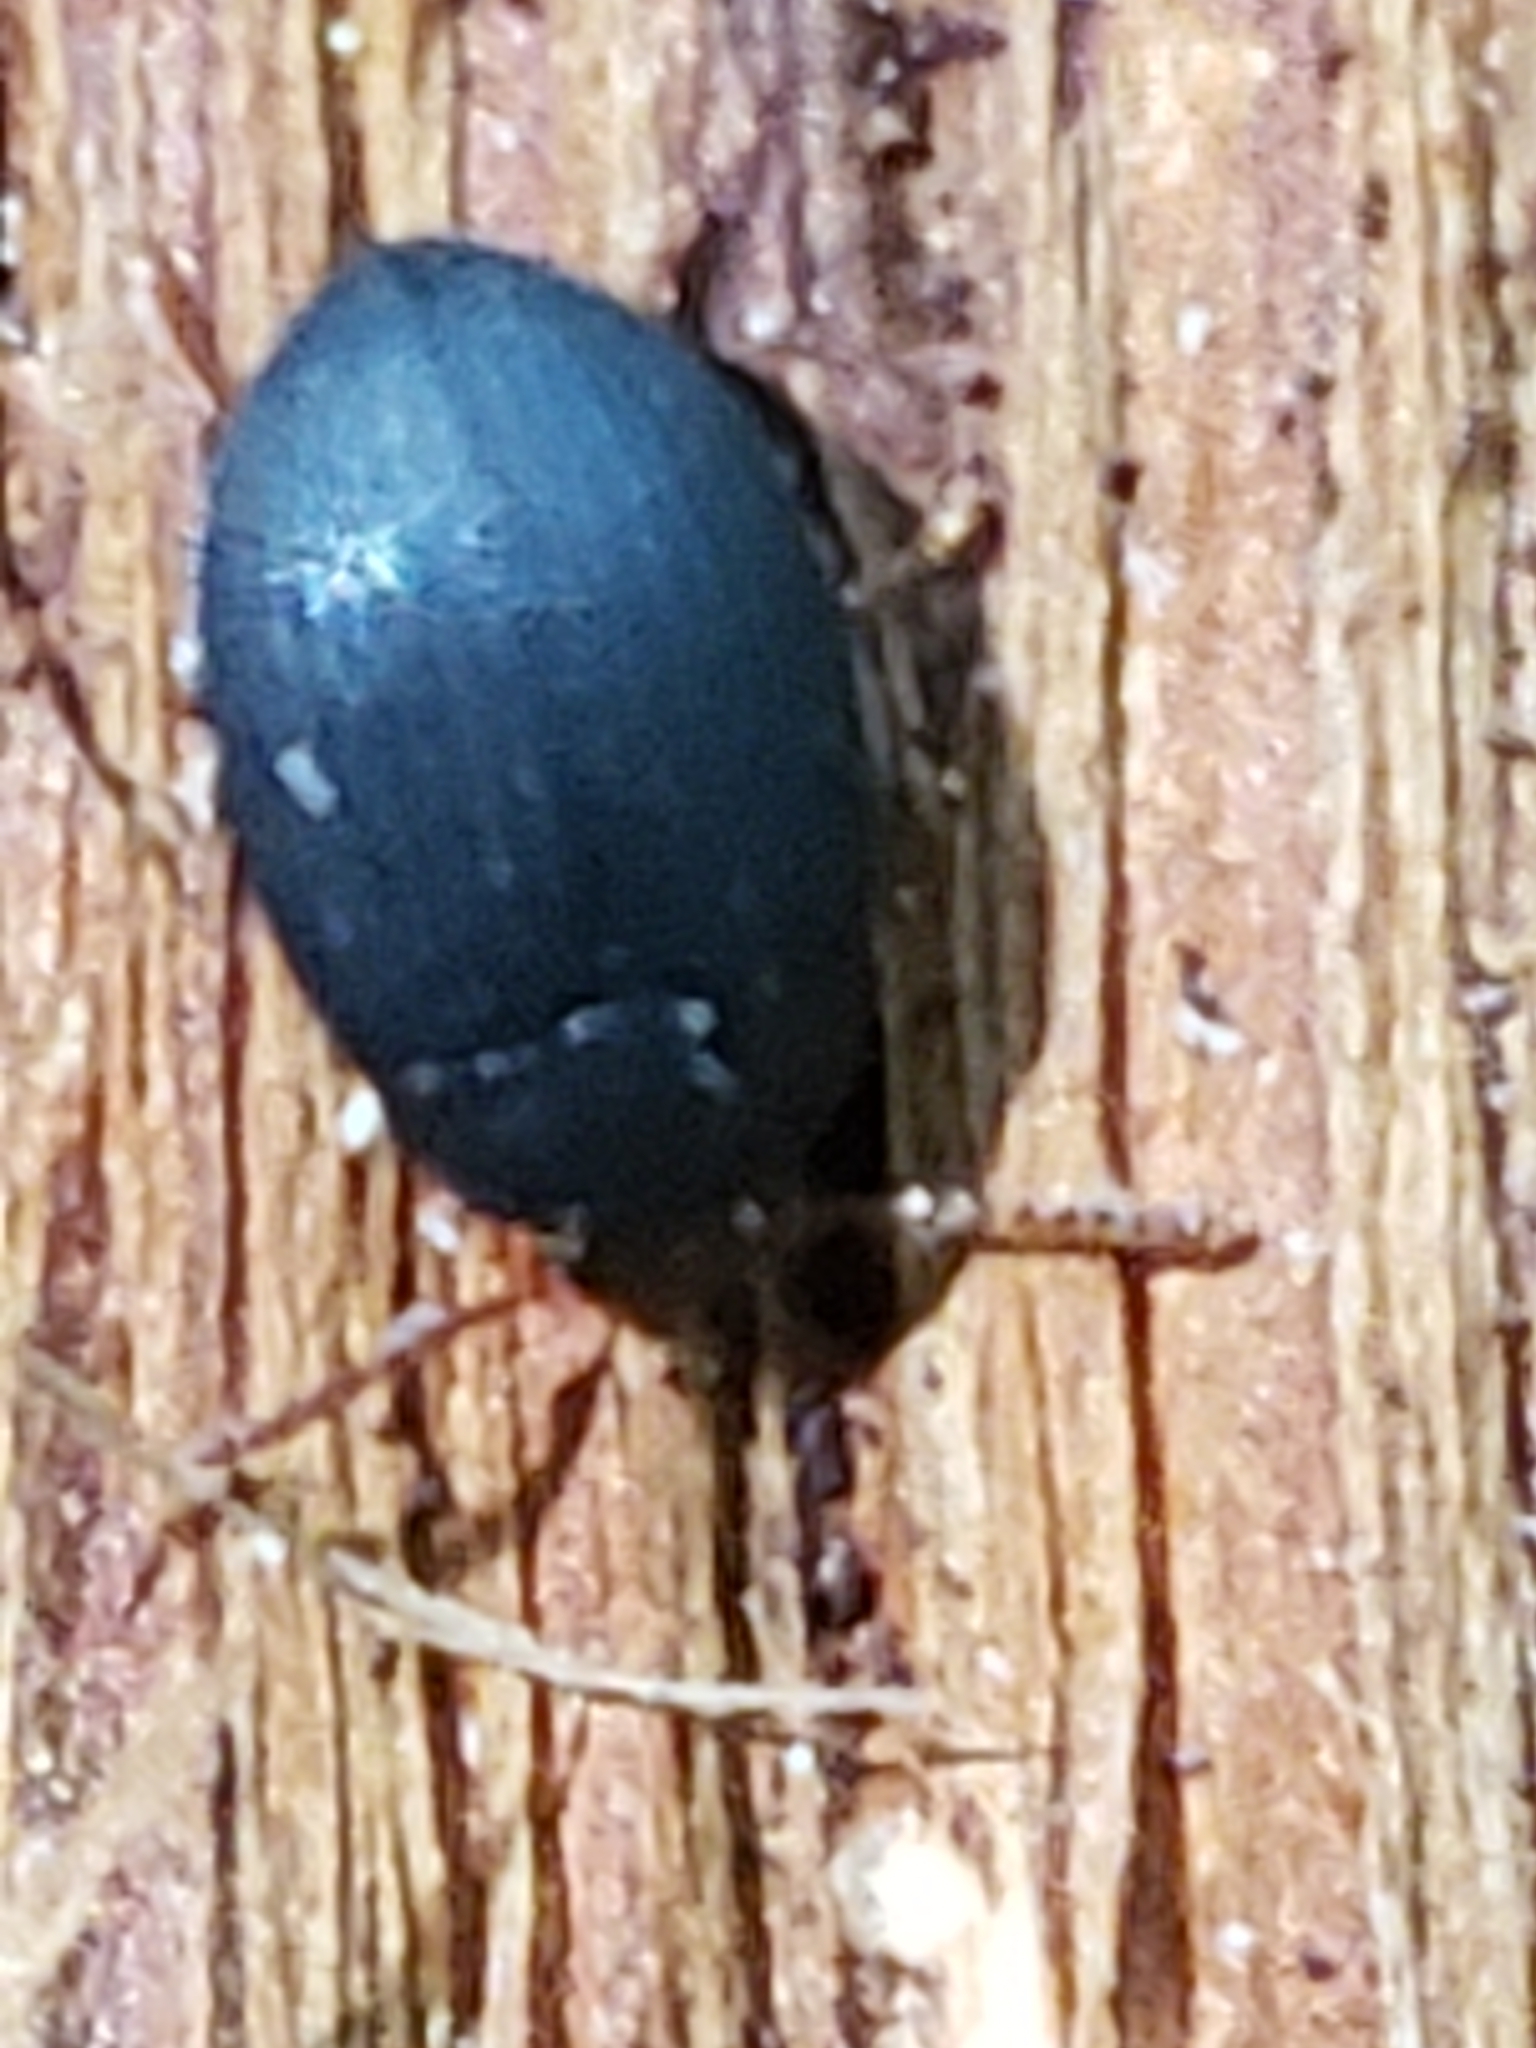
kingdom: Animalia
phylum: Arthropoda
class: Insecta
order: Coleoptera
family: Tenebrionidae
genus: Platydema
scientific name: Platydema ruficornis
